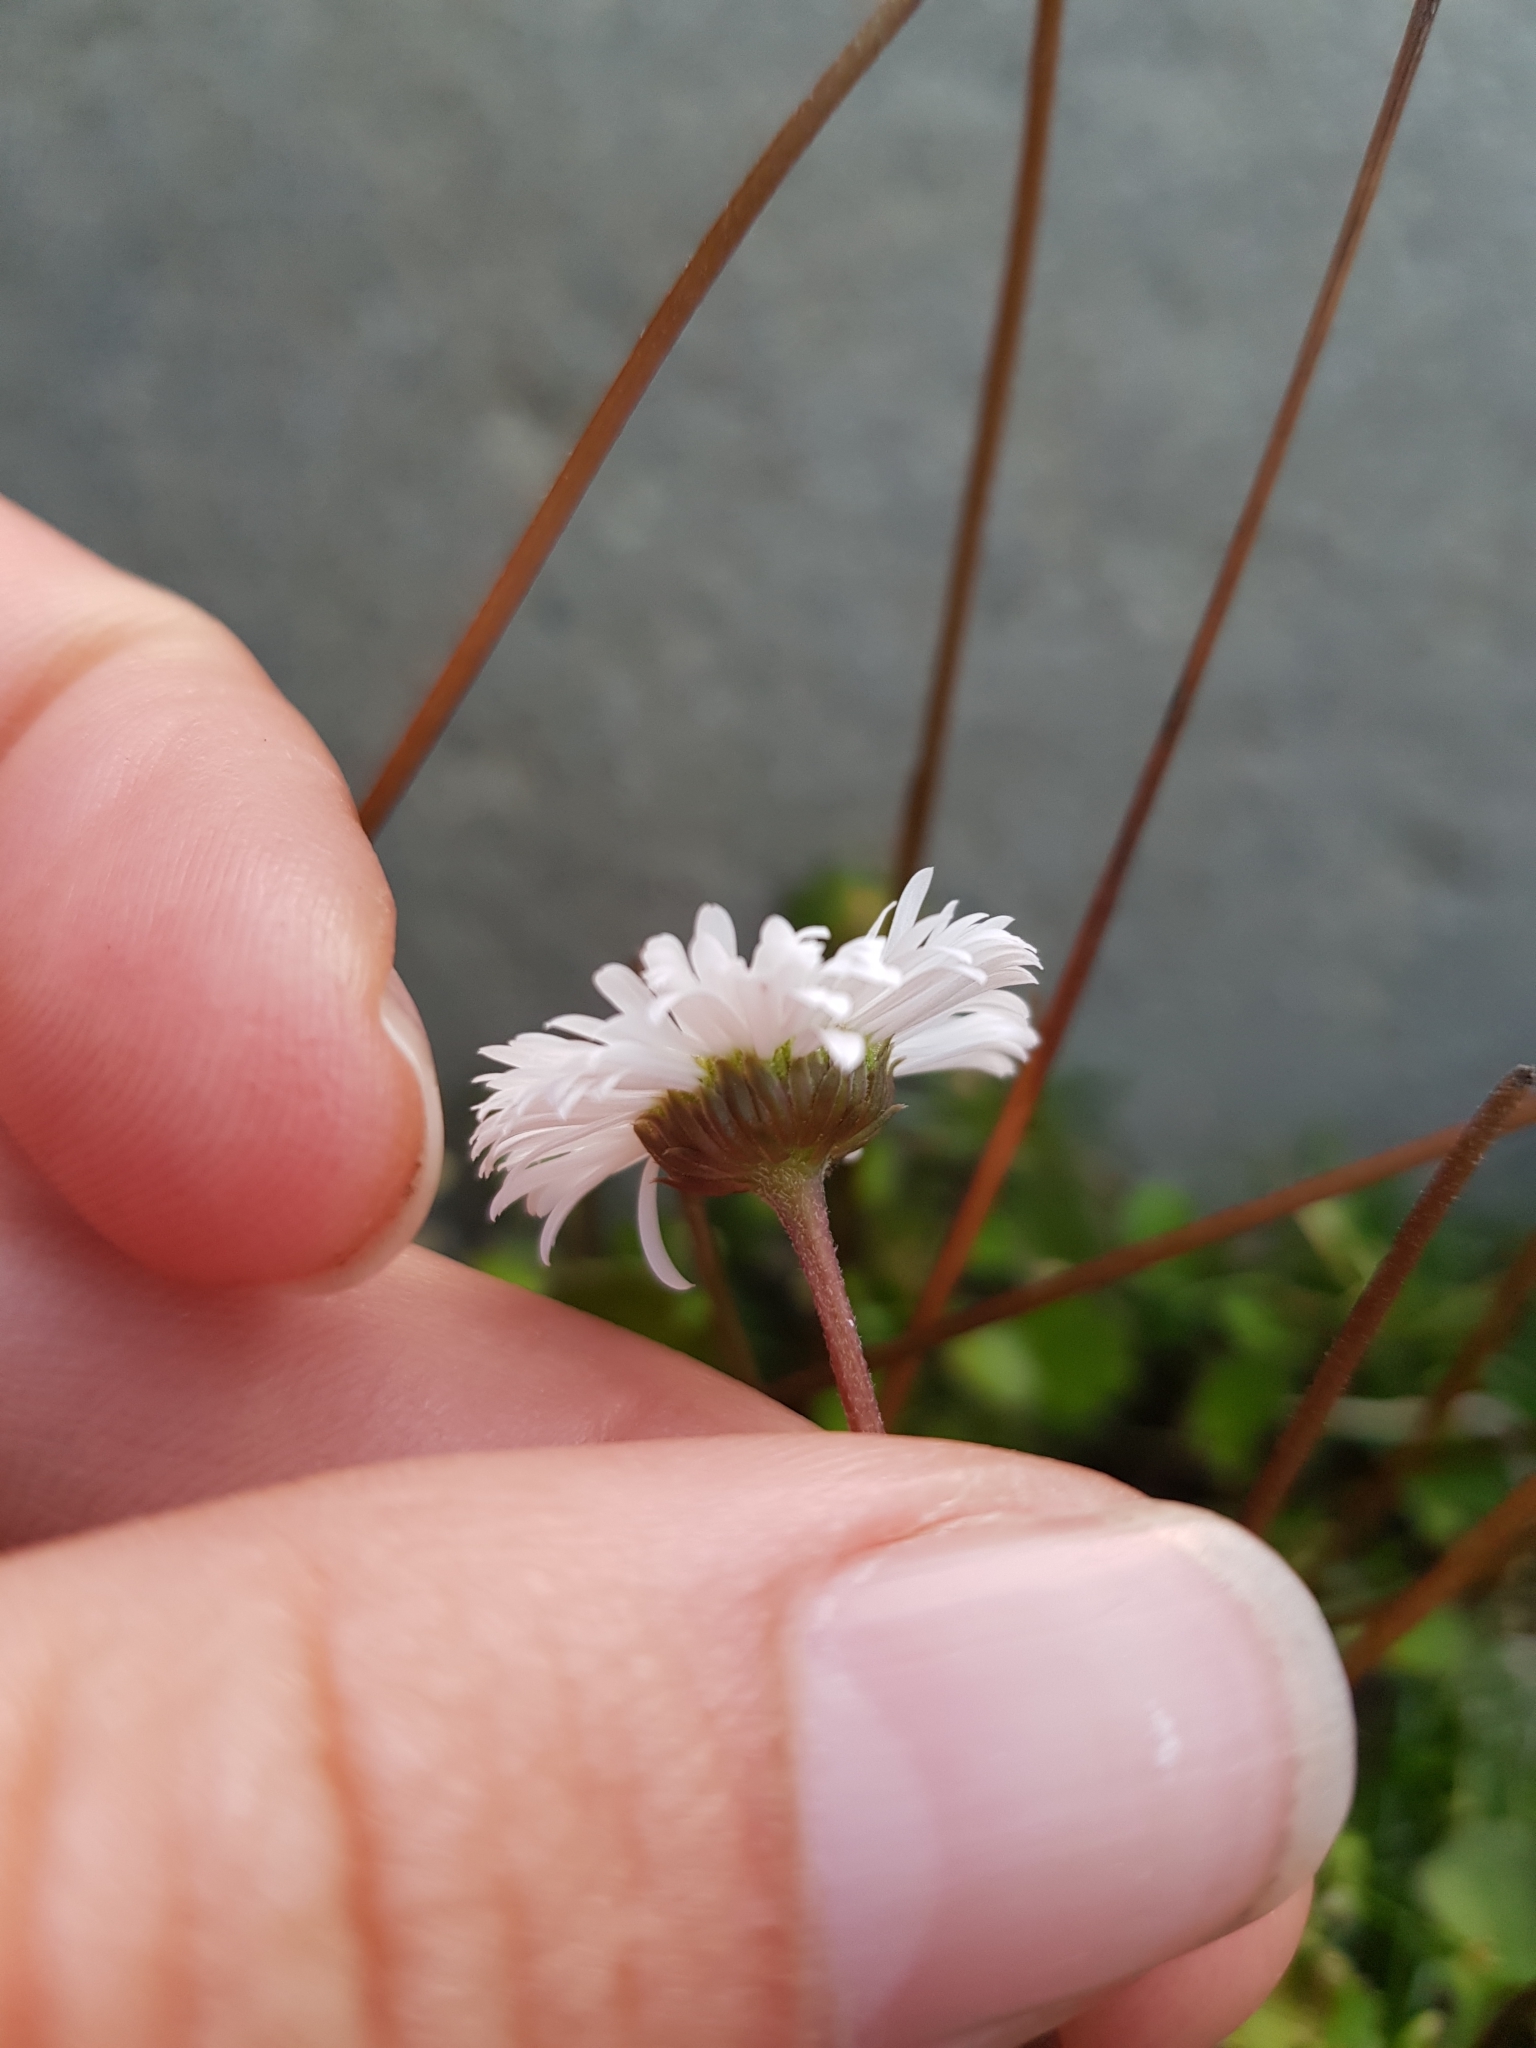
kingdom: Plantae
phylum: Tracheophyta
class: Magnoliopsida
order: Asterales
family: Asteraceae
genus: Lagenophora
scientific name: Lagenophora pumila
